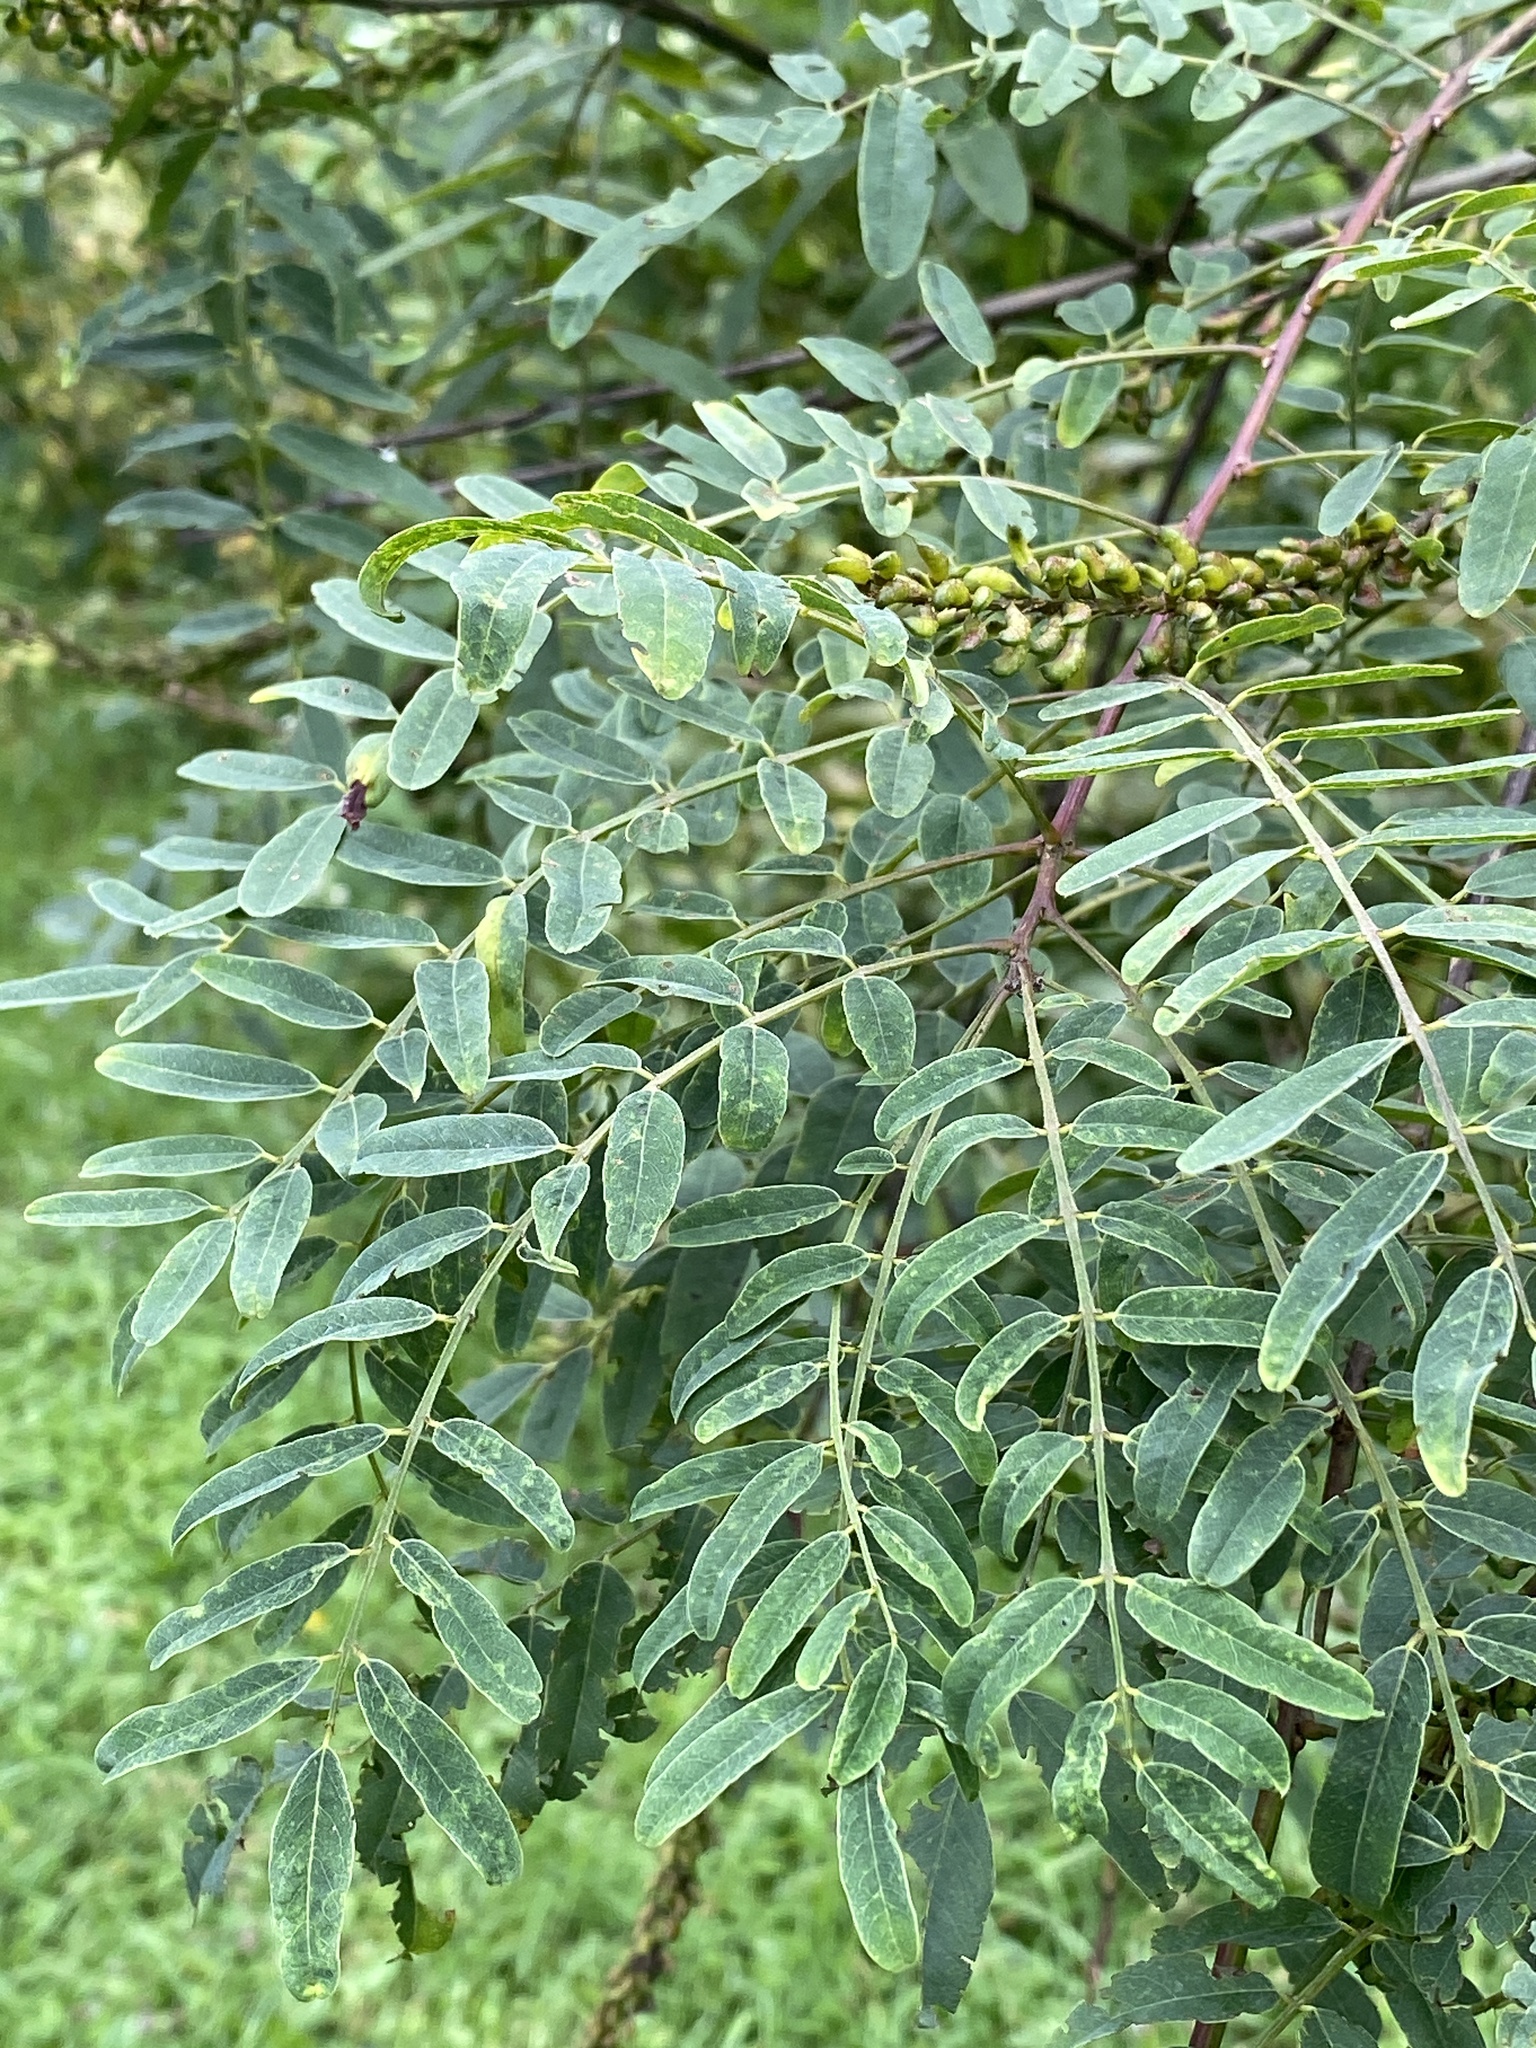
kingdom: Plantae
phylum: Tracheophyta
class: Magnoliopsida
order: Fabales
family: Fabaceae
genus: Amorpha
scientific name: Amorpha fruticosa
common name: False indigo
